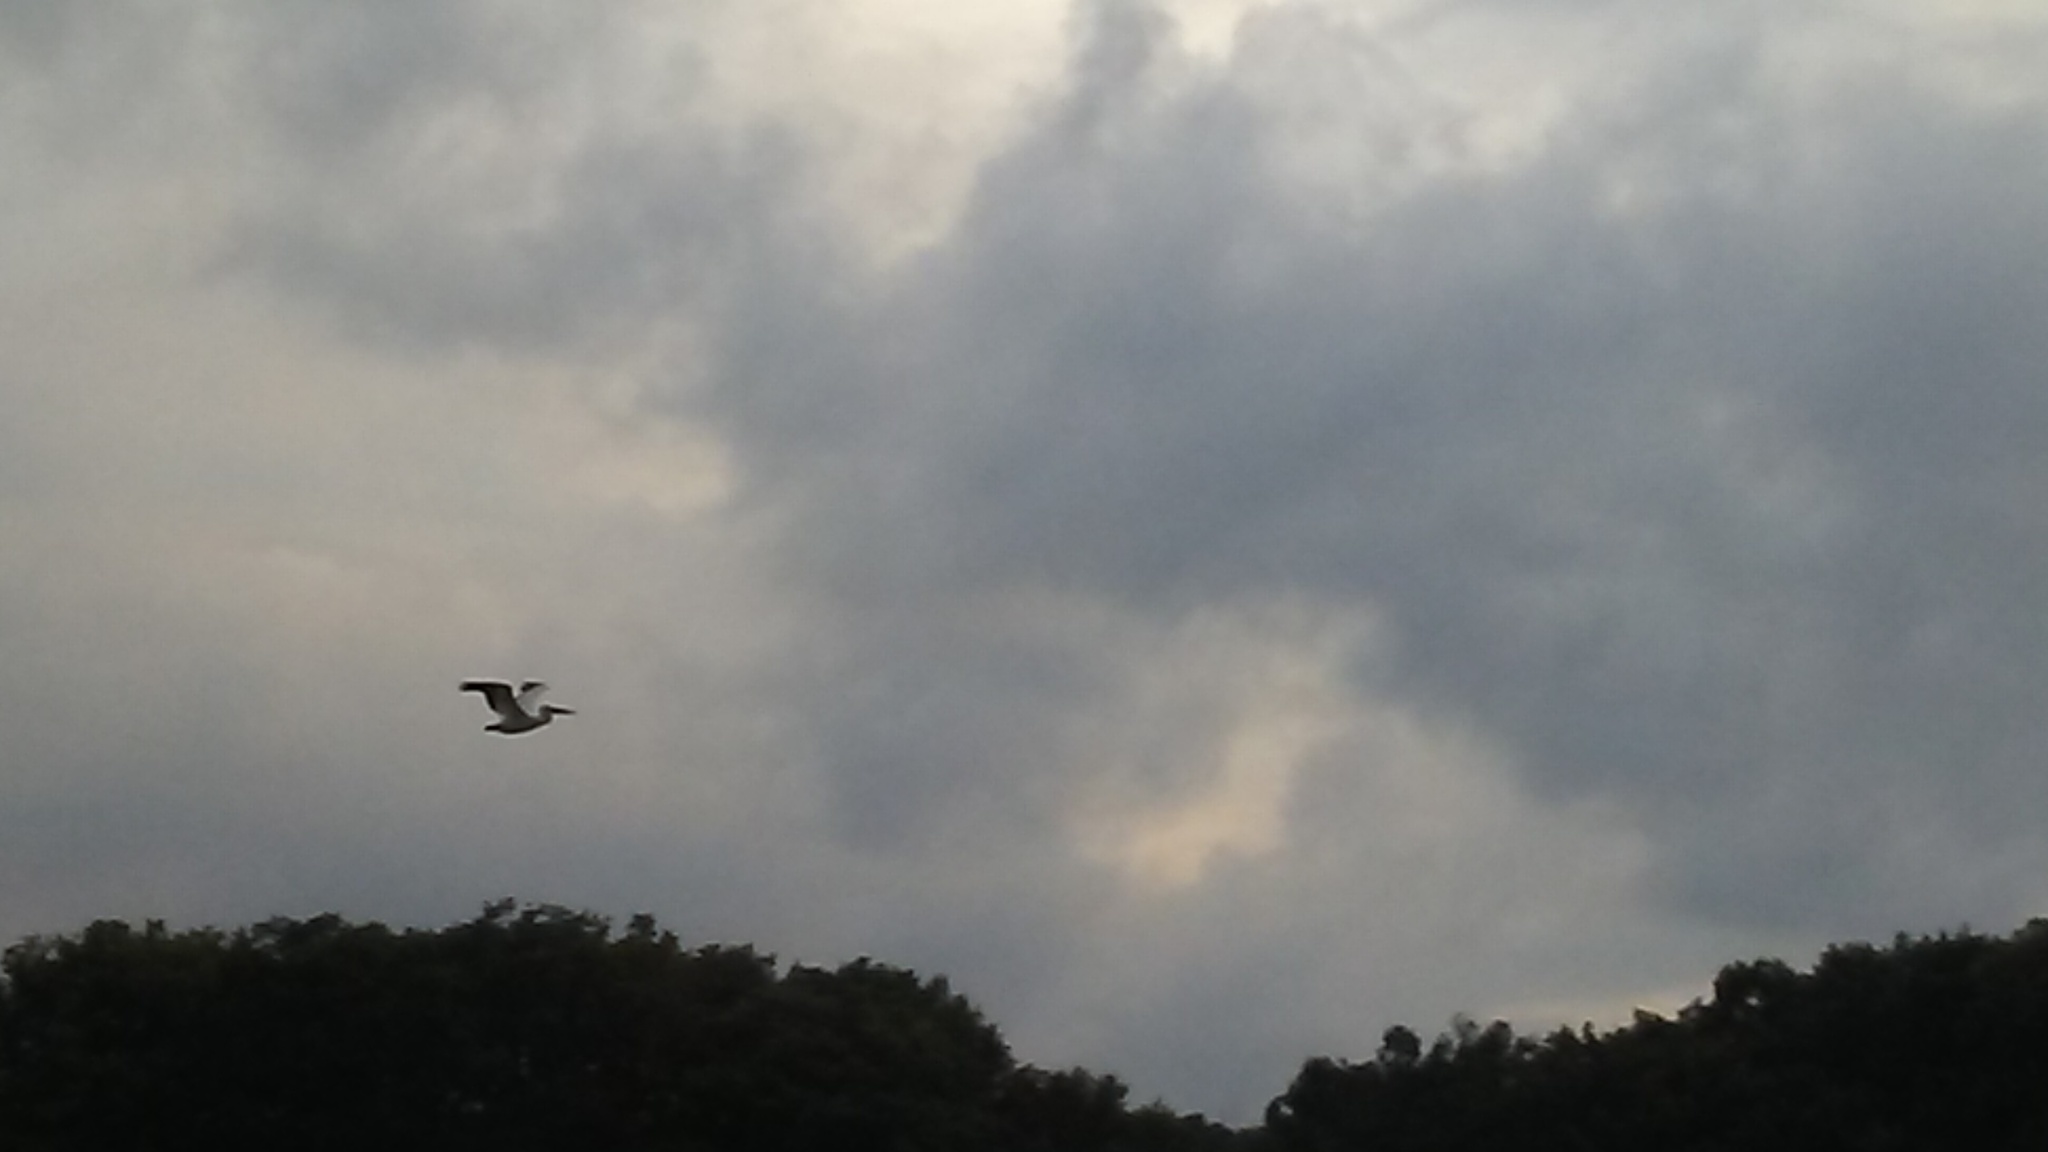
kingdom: Animalia
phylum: Chordata
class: Aves
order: Pelecaniformes
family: Pelecanidae
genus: Pelecanus
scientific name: Pelecanus erythrorhynchos
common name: American white pelican
